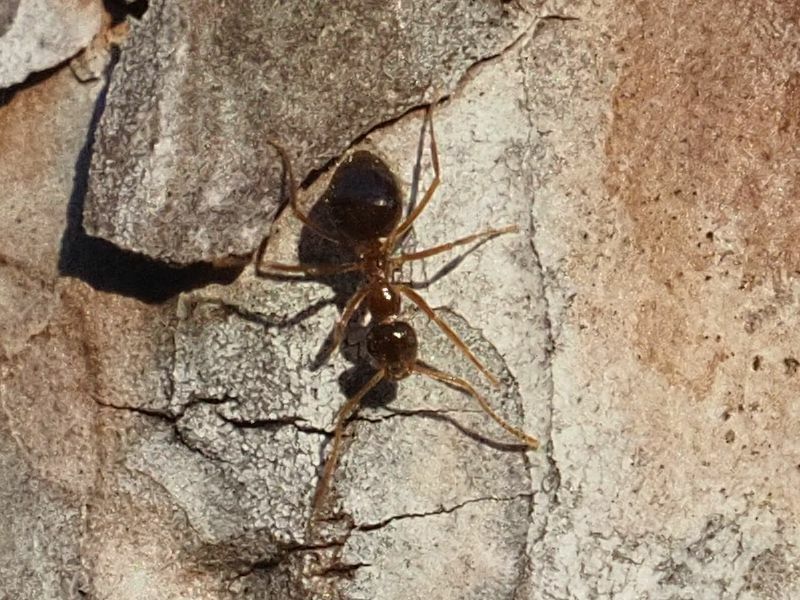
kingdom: Animalia
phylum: Arthropoda
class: Insecta
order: Hymenoptera
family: Formicidae
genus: Prenolepis
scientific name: Prenolepis nitens
